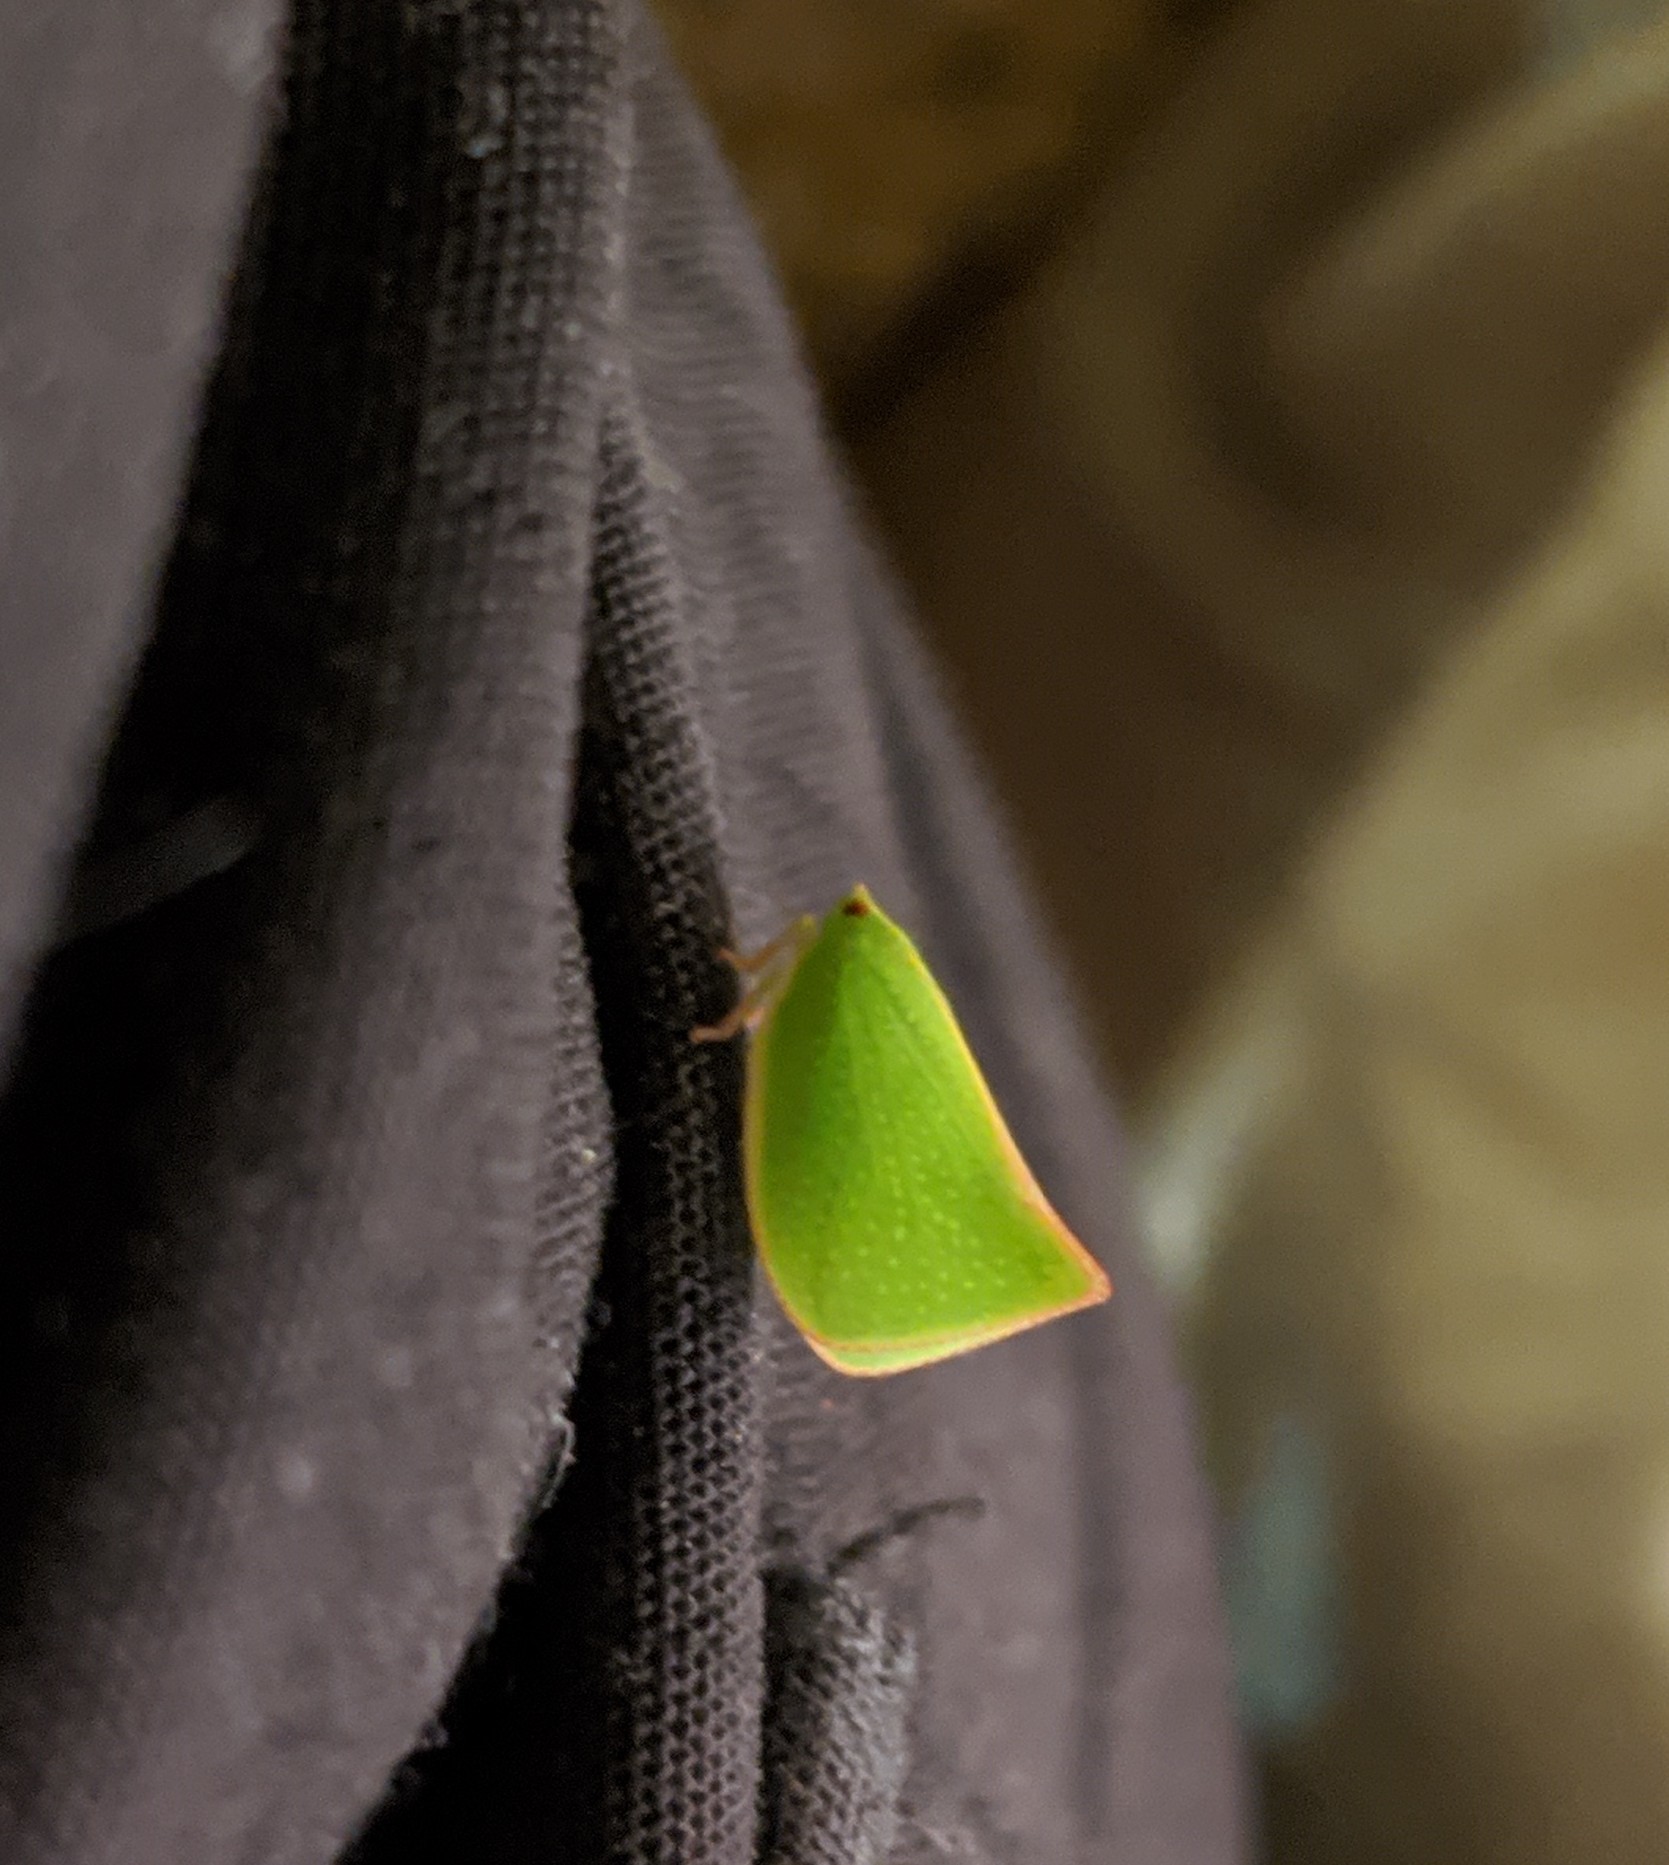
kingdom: Animalia
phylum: Arthropoda
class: Insecta
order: Hemiptera
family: Flatidae
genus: Siphanta
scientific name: Siphanta acuta
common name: Torpedo bug
